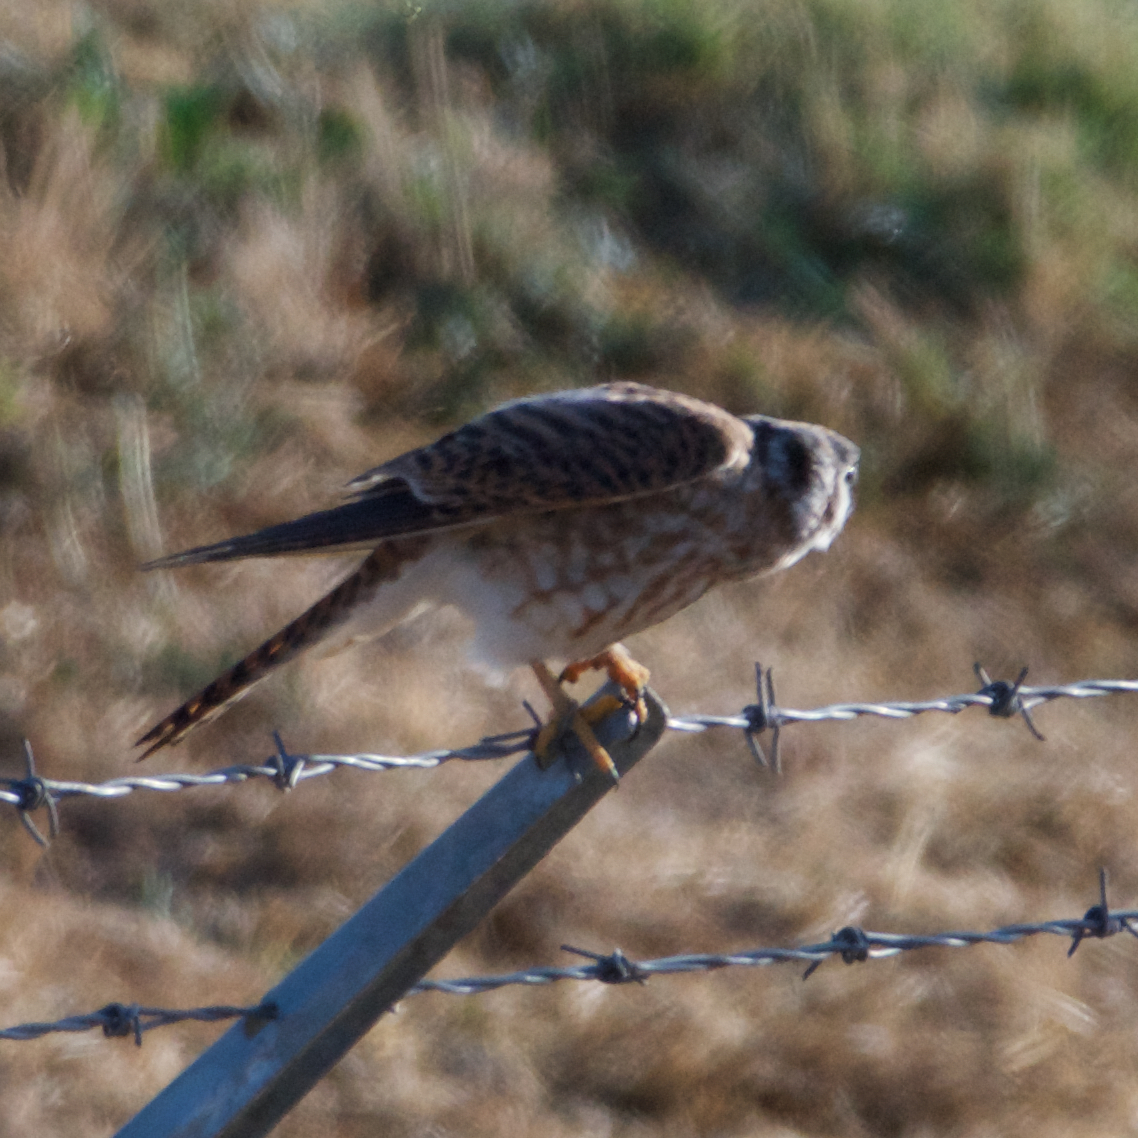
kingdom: Animalia
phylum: Chordata
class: Aves
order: Falconiformes
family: Falconidae
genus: Falco
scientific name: Falco sparverius
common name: American kestrel
